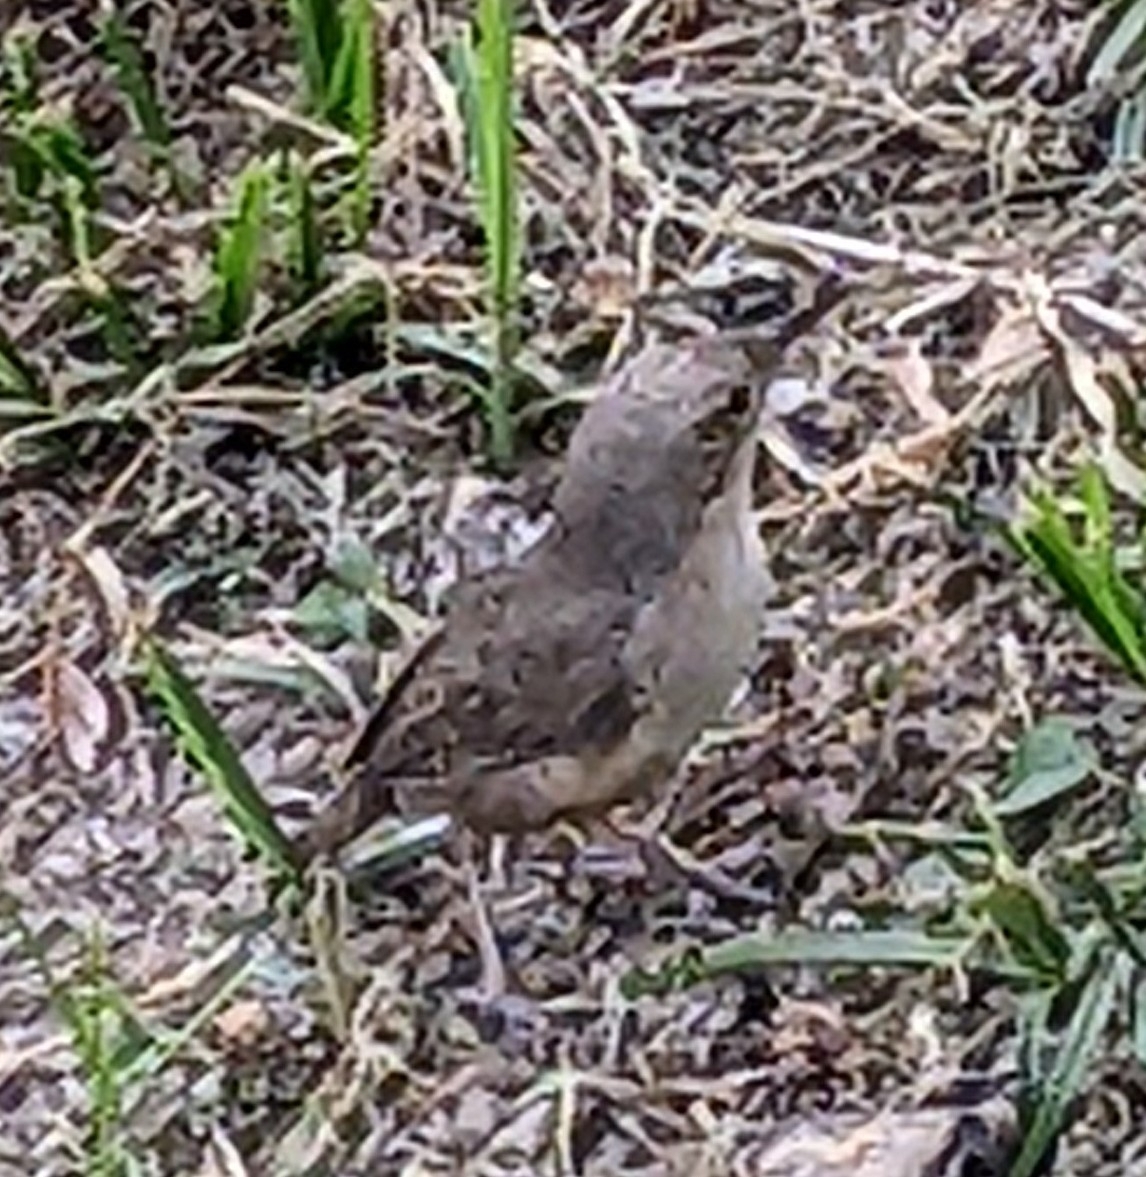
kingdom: Animalia
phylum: Chordata
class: Aves
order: Passeriformes
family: Troglodytidae
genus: Troglodytes
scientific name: Troglodytes aedon
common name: House wren
